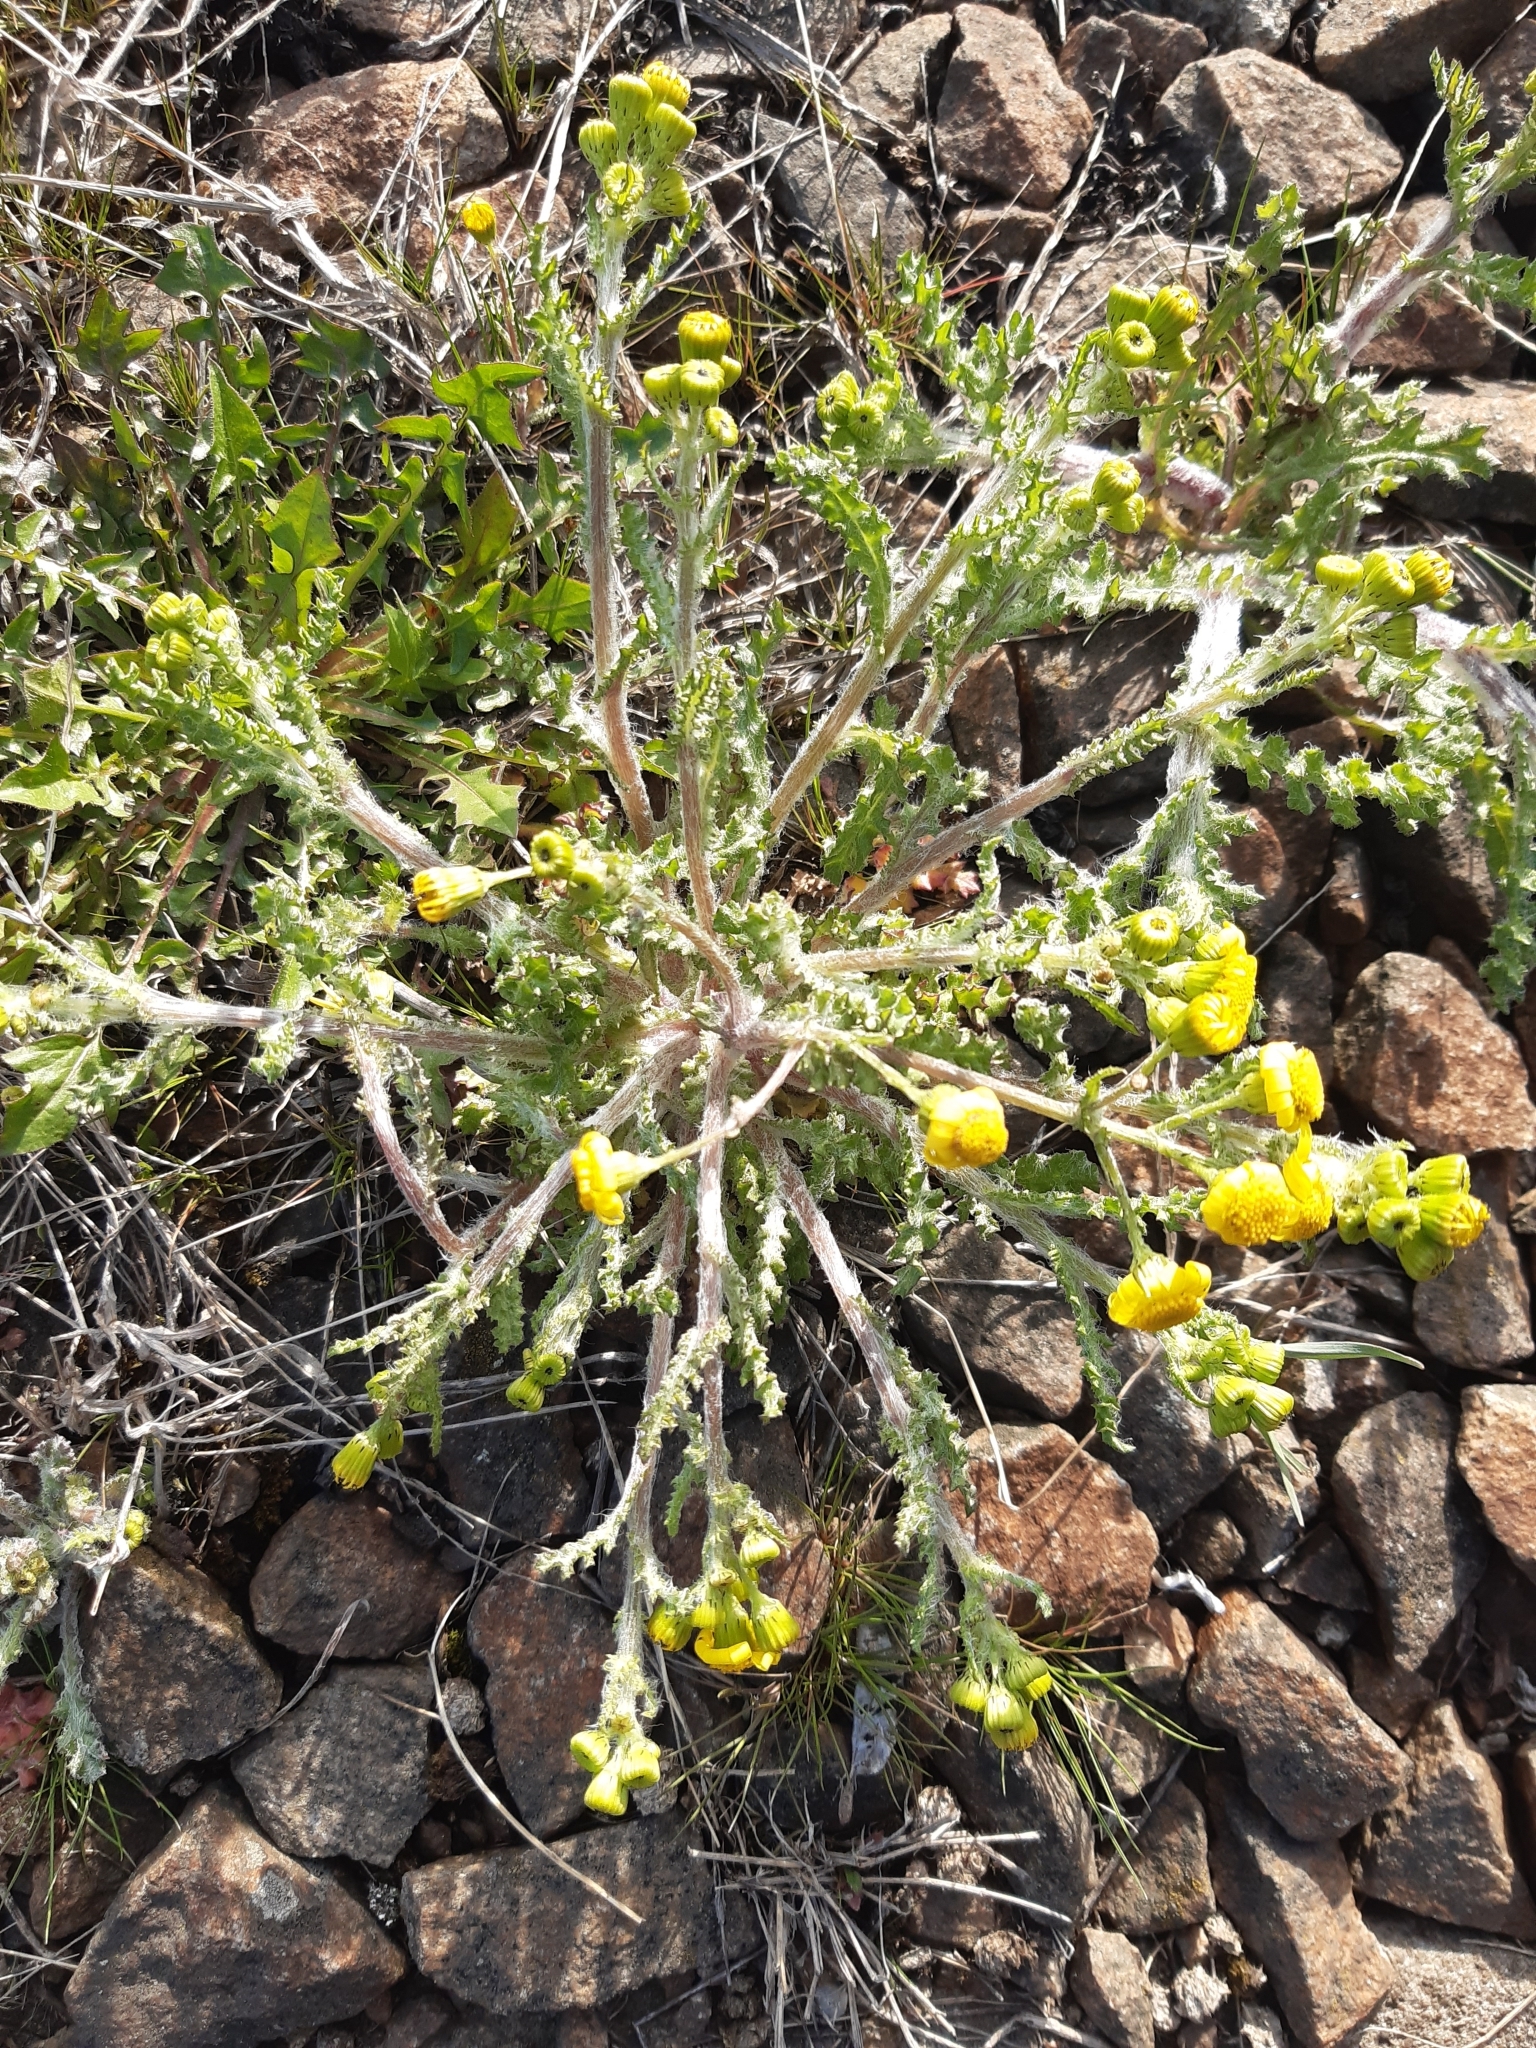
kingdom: Plantae
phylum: Tracheophyta
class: Magnoliopsida
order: Asterales
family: Asteraceae
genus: Senecio
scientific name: Senecio vernalis
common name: Eastern groundsel
